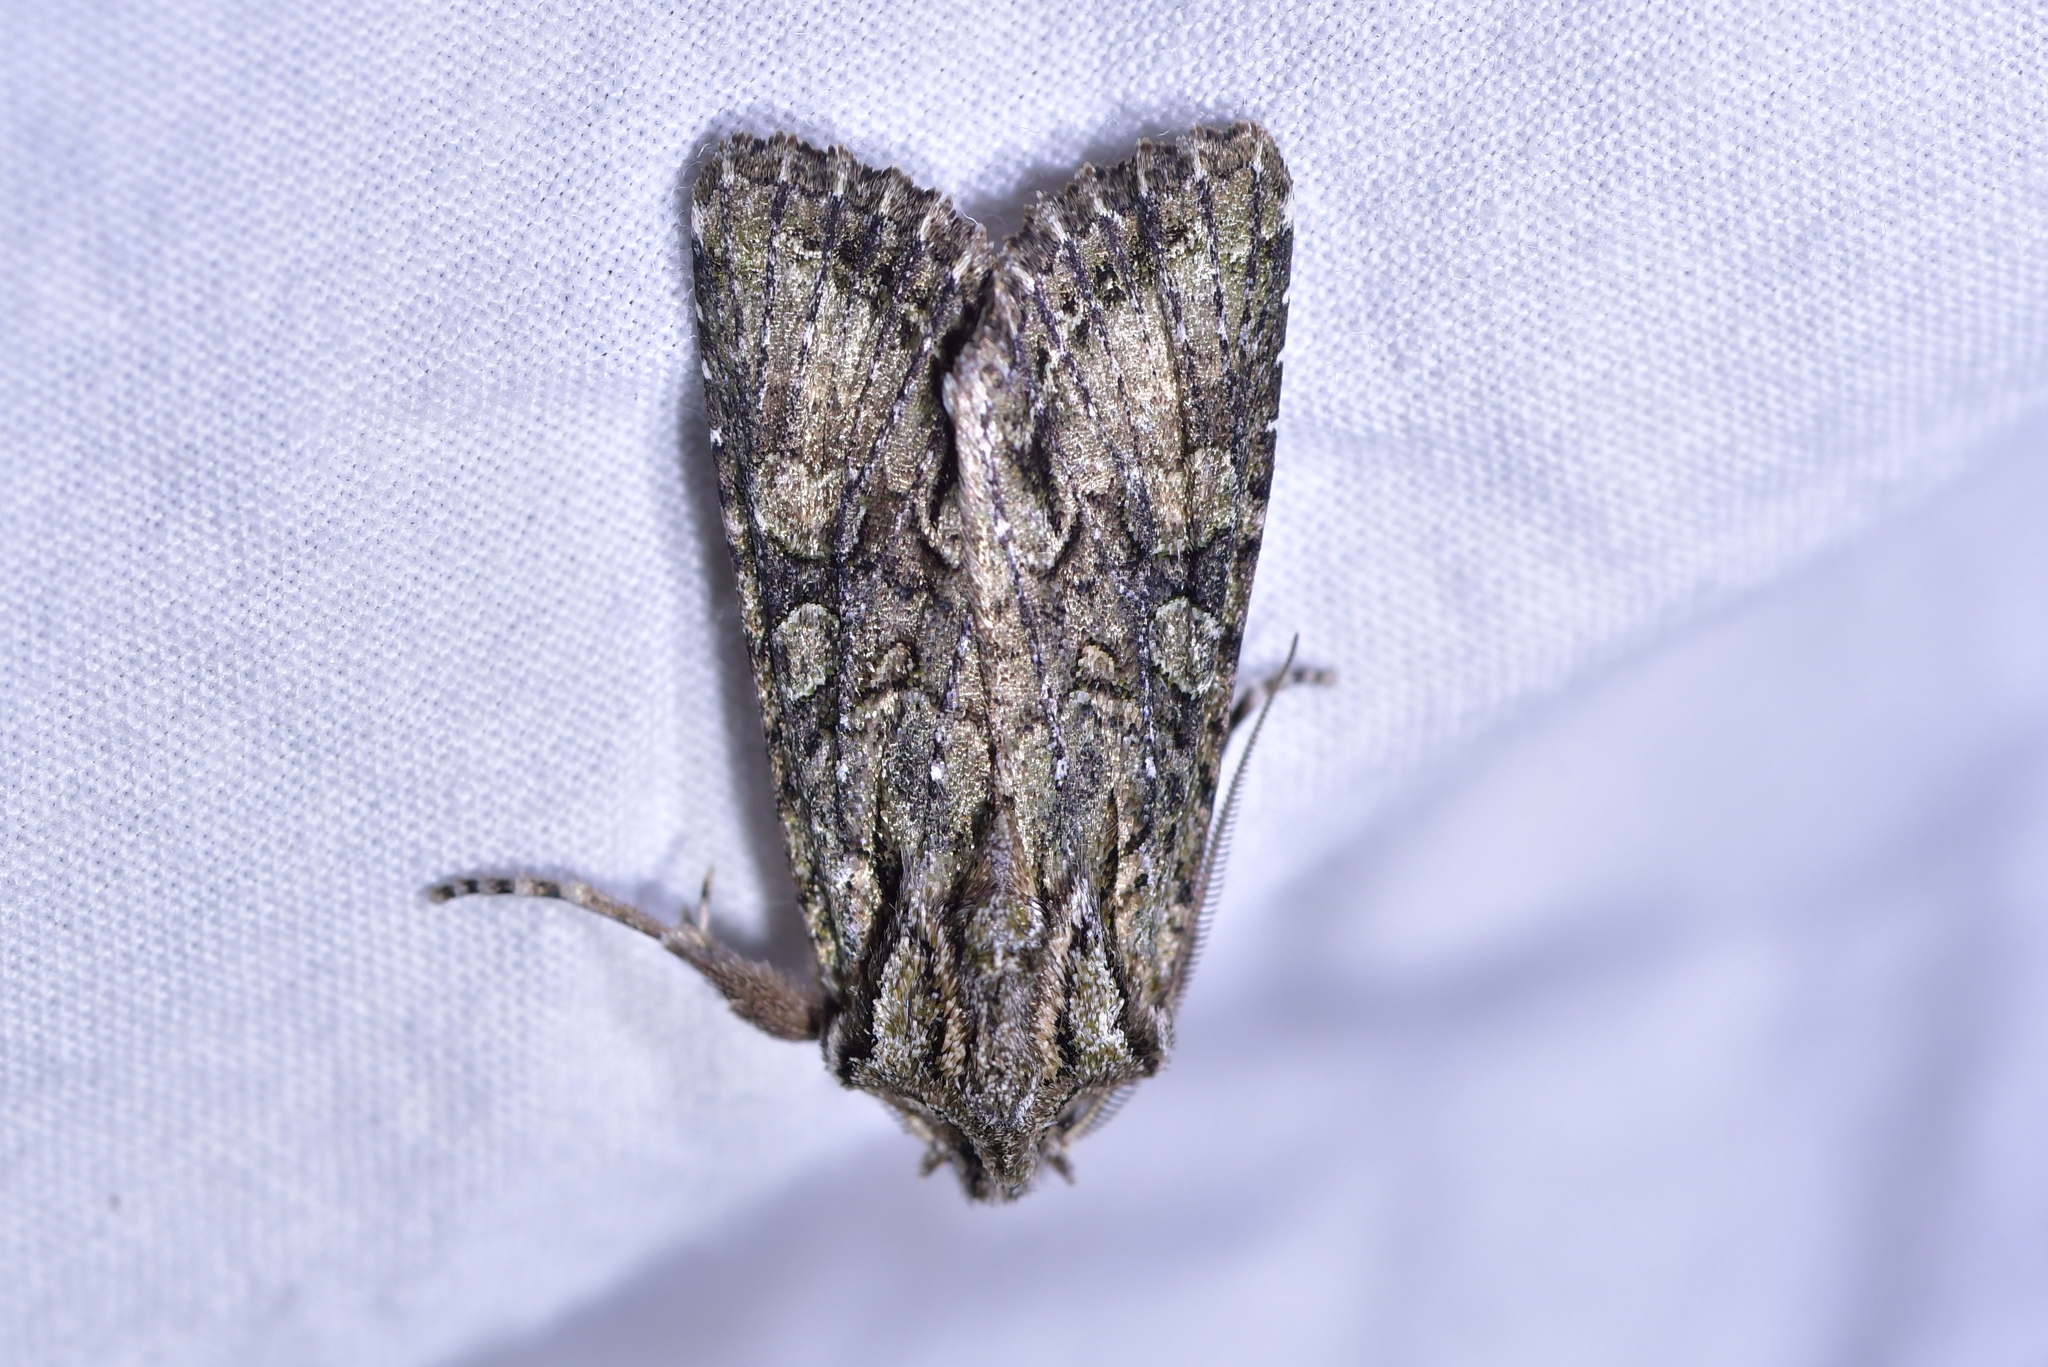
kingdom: Animalia
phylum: Arthropoda
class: Insecta
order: Lepidoptera
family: Noctuidae
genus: Ichneutica
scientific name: Ichneutica mutans
